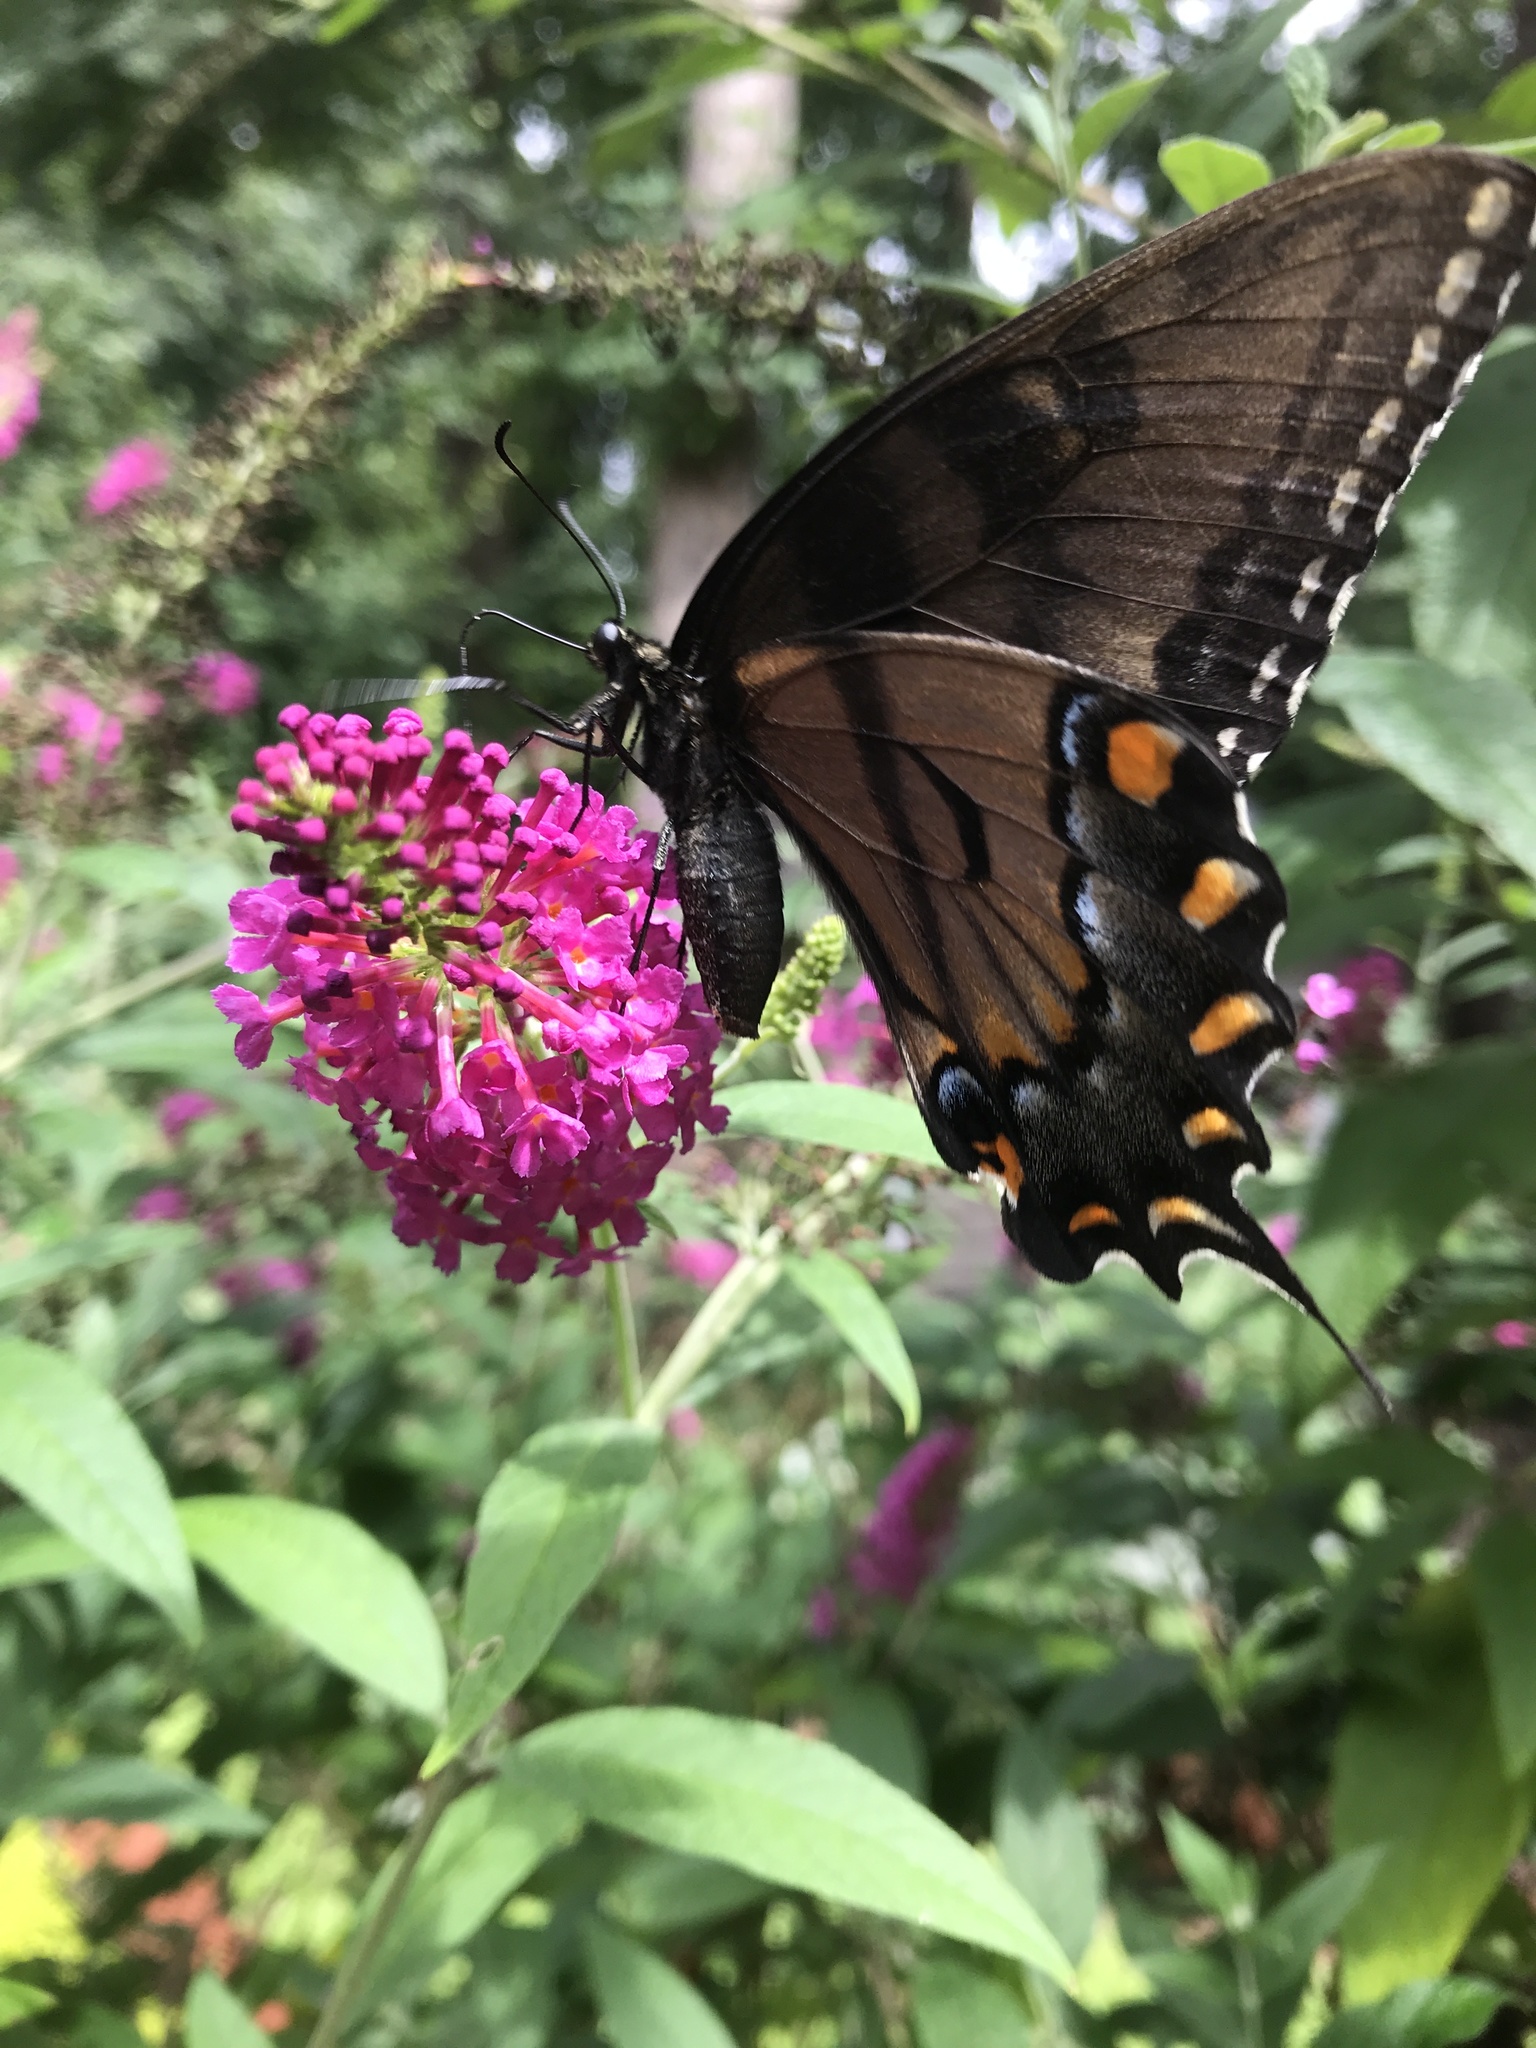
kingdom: Animalia
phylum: Arthropoda
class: Insecta
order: Lepidoptera
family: Papilionidae
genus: Papilio
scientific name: Papilio glaucus
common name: Tiger swallowtail
